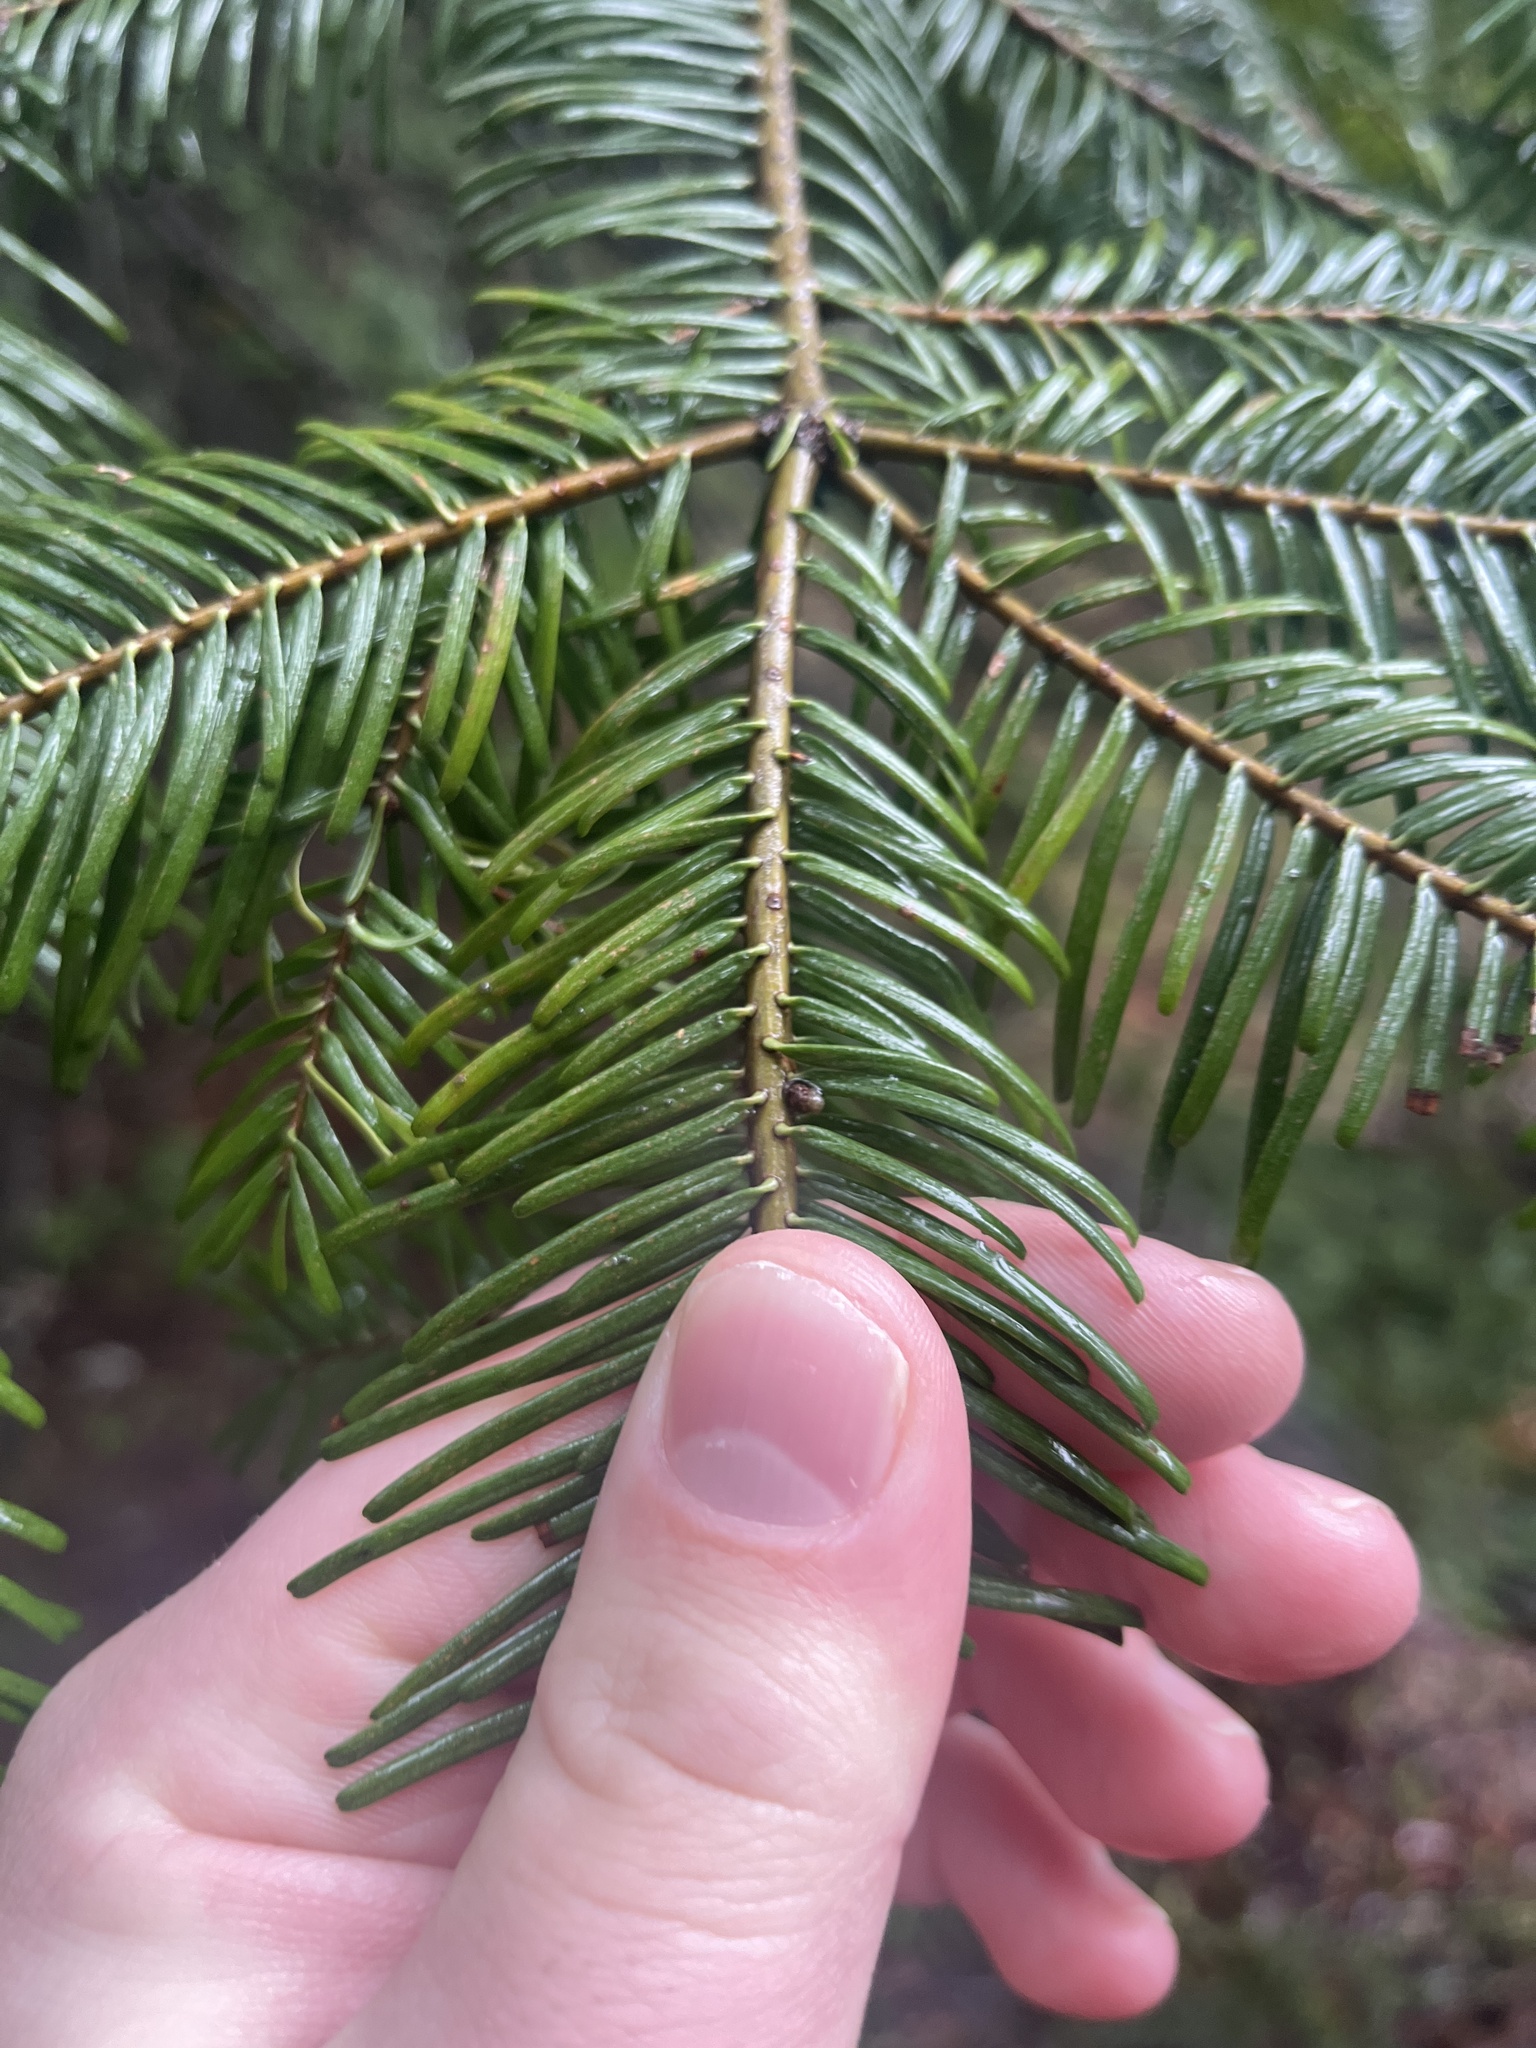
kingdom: Plantae
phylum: Tracheophyta
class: Pinopsida
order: Pinales
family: Pinaceae
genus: Abies
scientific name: Abies grandis
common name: Giant fir
